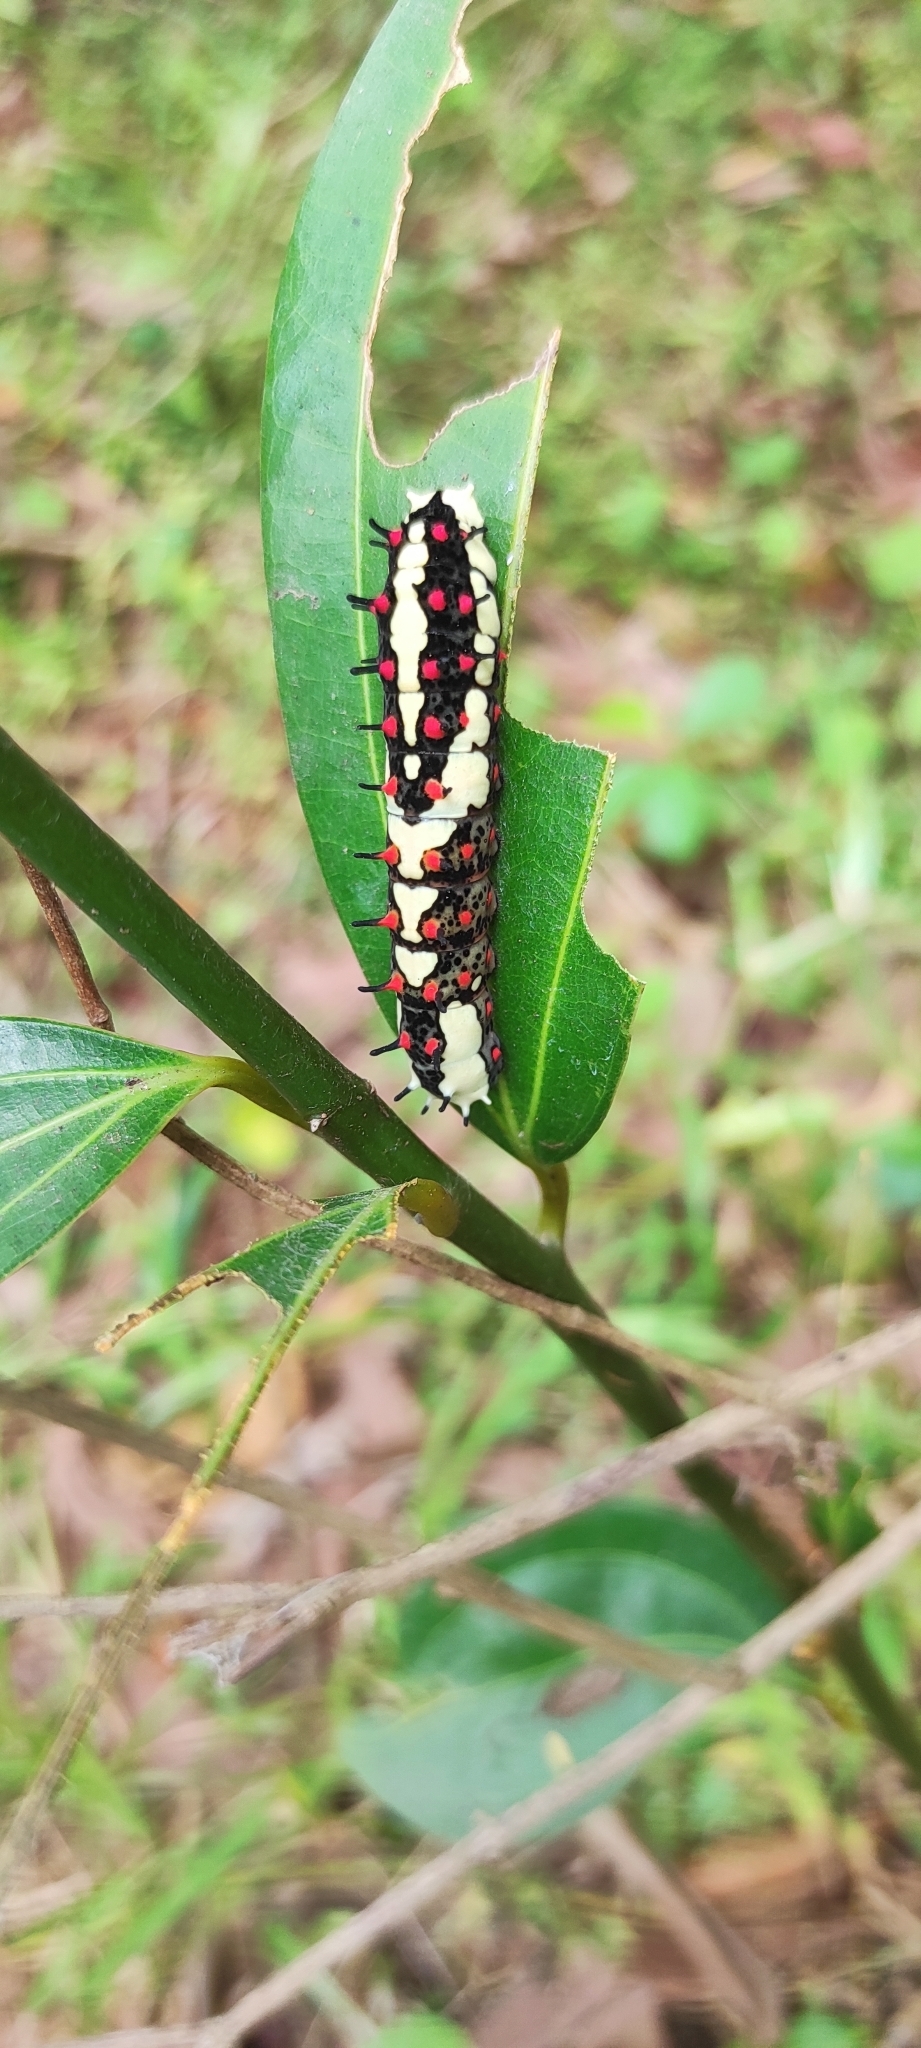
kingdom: Animalia
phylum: Arthropoda
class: Insecta
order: Lepidoptera
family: Papilionidae
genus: Chilasa
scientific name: Chilasa clytia
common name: Common mime
